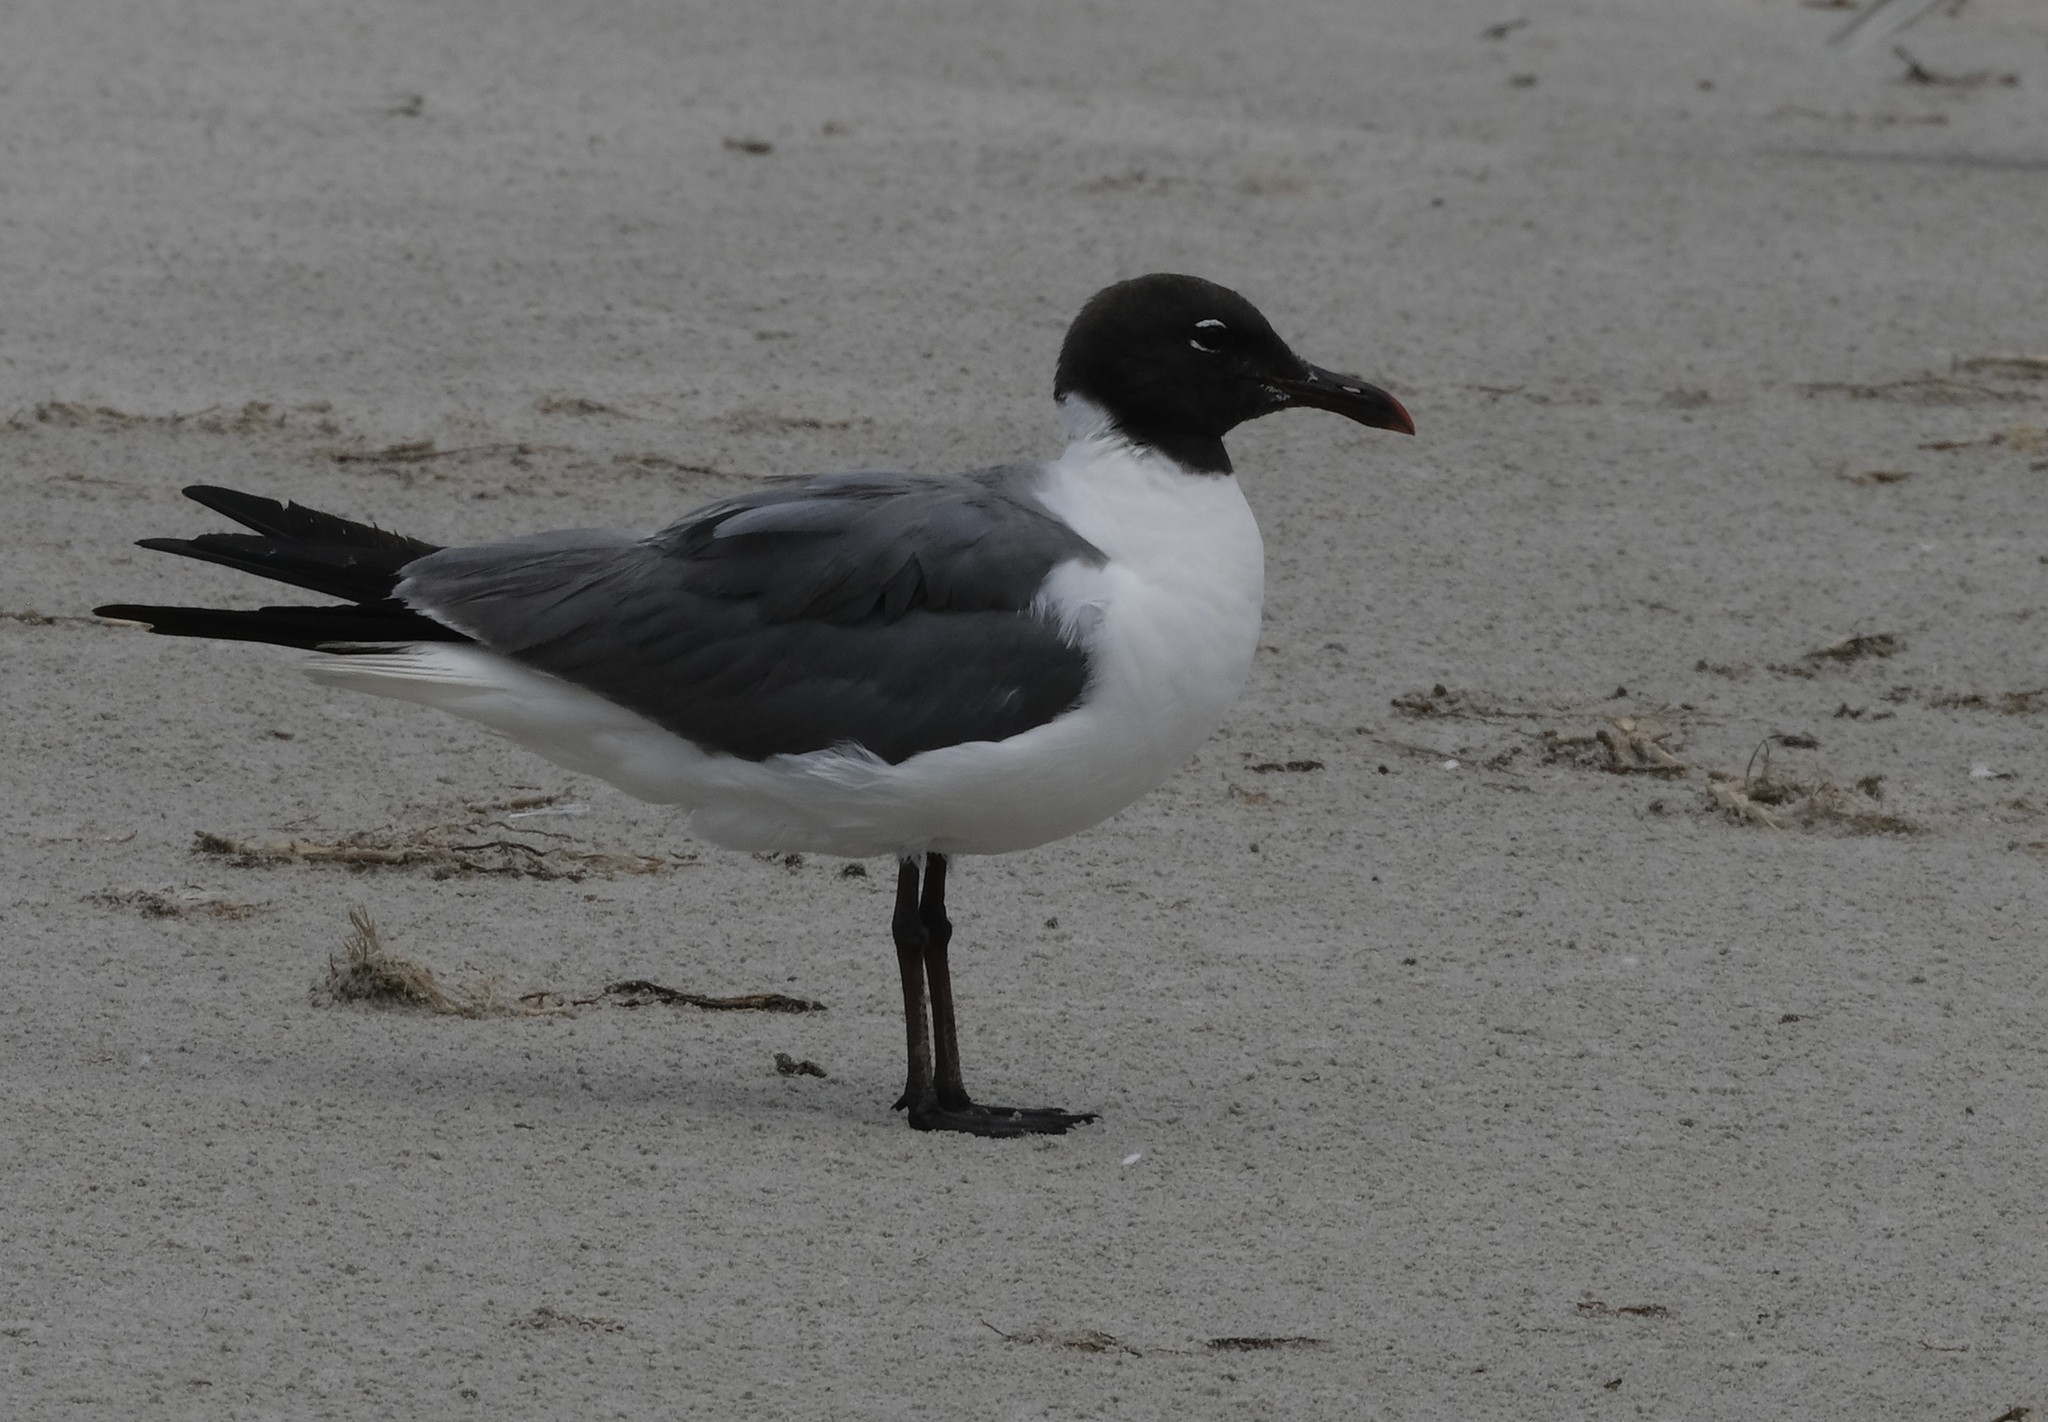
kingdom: Animalia
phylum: Chordata
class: Aves
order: Charadriiformes
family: Laridae
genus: Leucophaeus
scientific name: Leucophaeus atricilla
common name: Laughing gull
